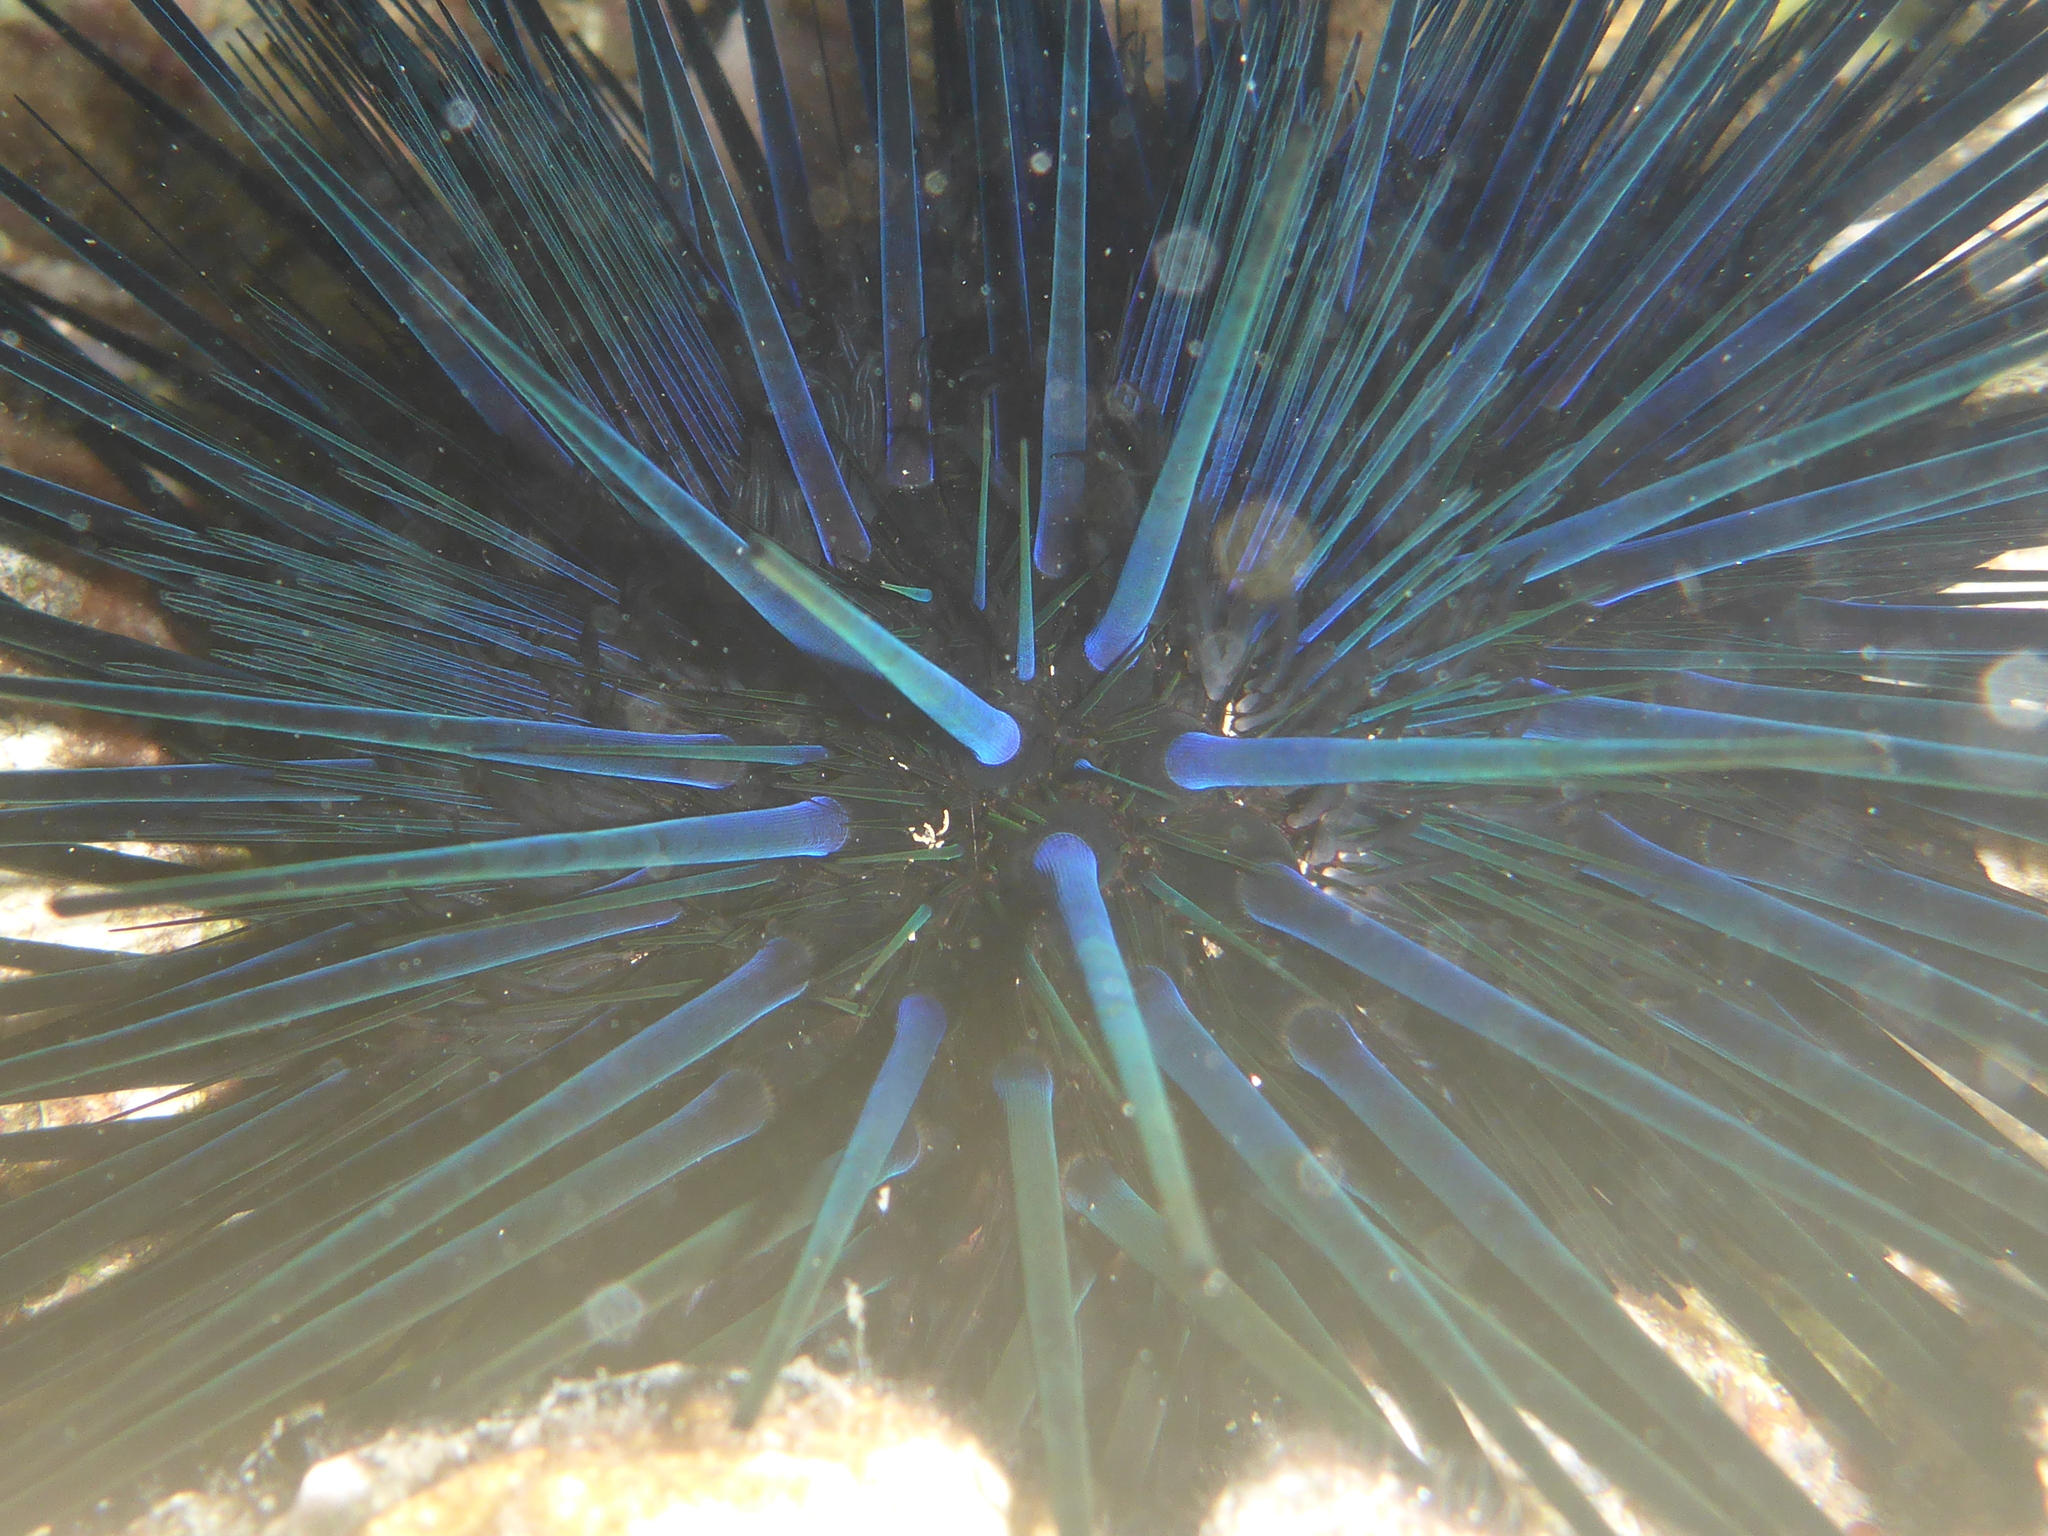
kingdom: Animalia
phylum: Echinodermata
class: Echinoidea
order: Diadematoida
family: Diadematidae
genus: Echinothrix
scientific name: Echinothrix diadema
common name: Schwarzer diademseeigel
